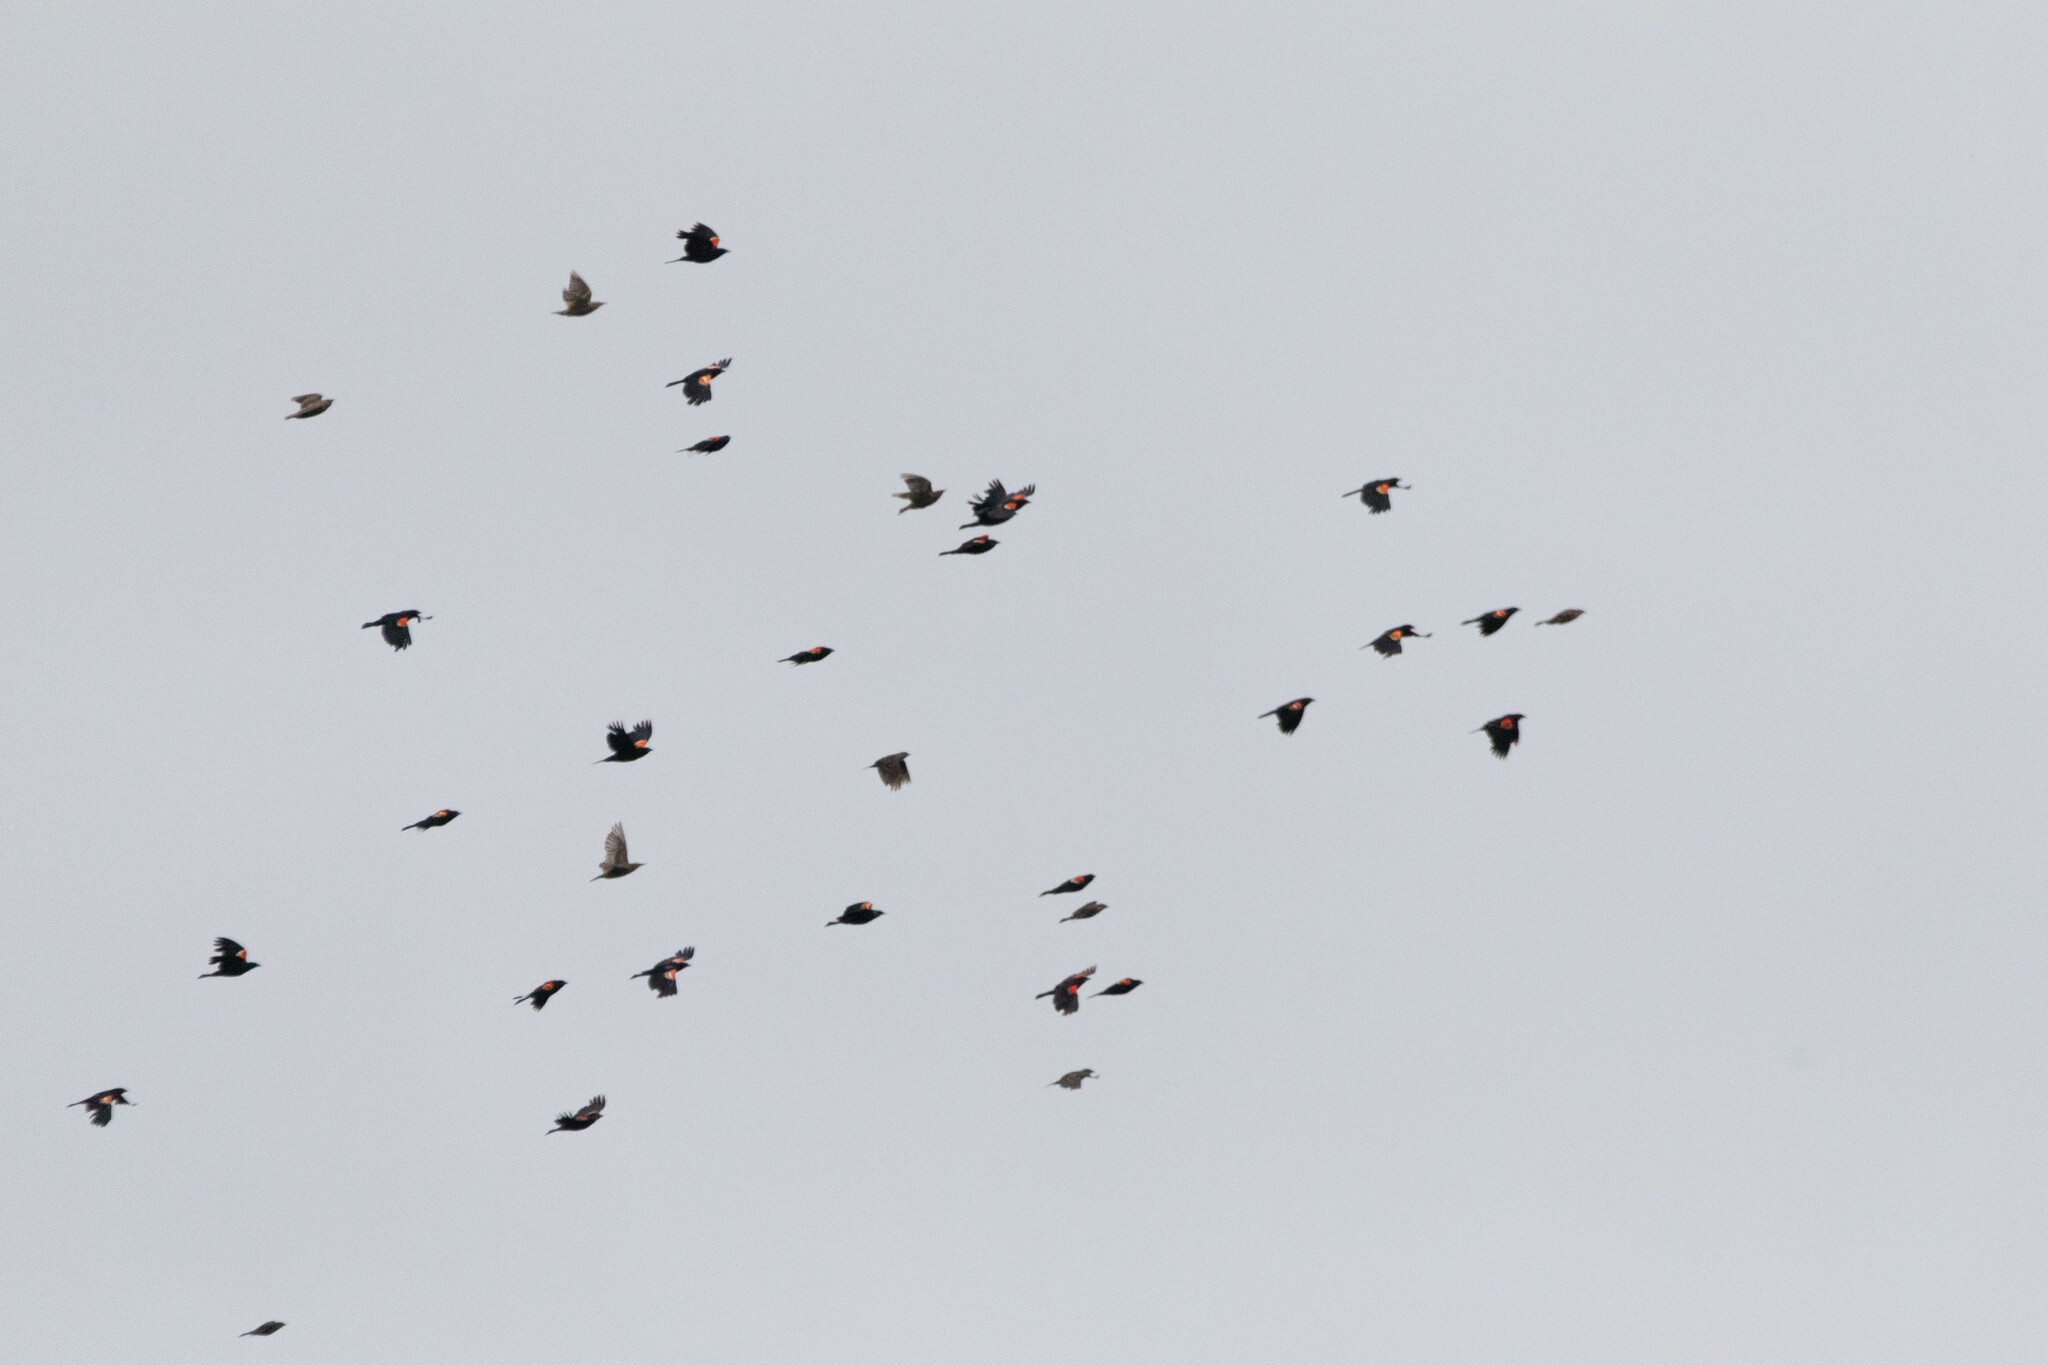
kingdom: Animalia
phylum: Chordata
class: Aves
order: Passeriformes
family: Icteridae
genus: Agelaius
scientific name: Agelaius phoeniceus
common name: Red-winged blackbird
